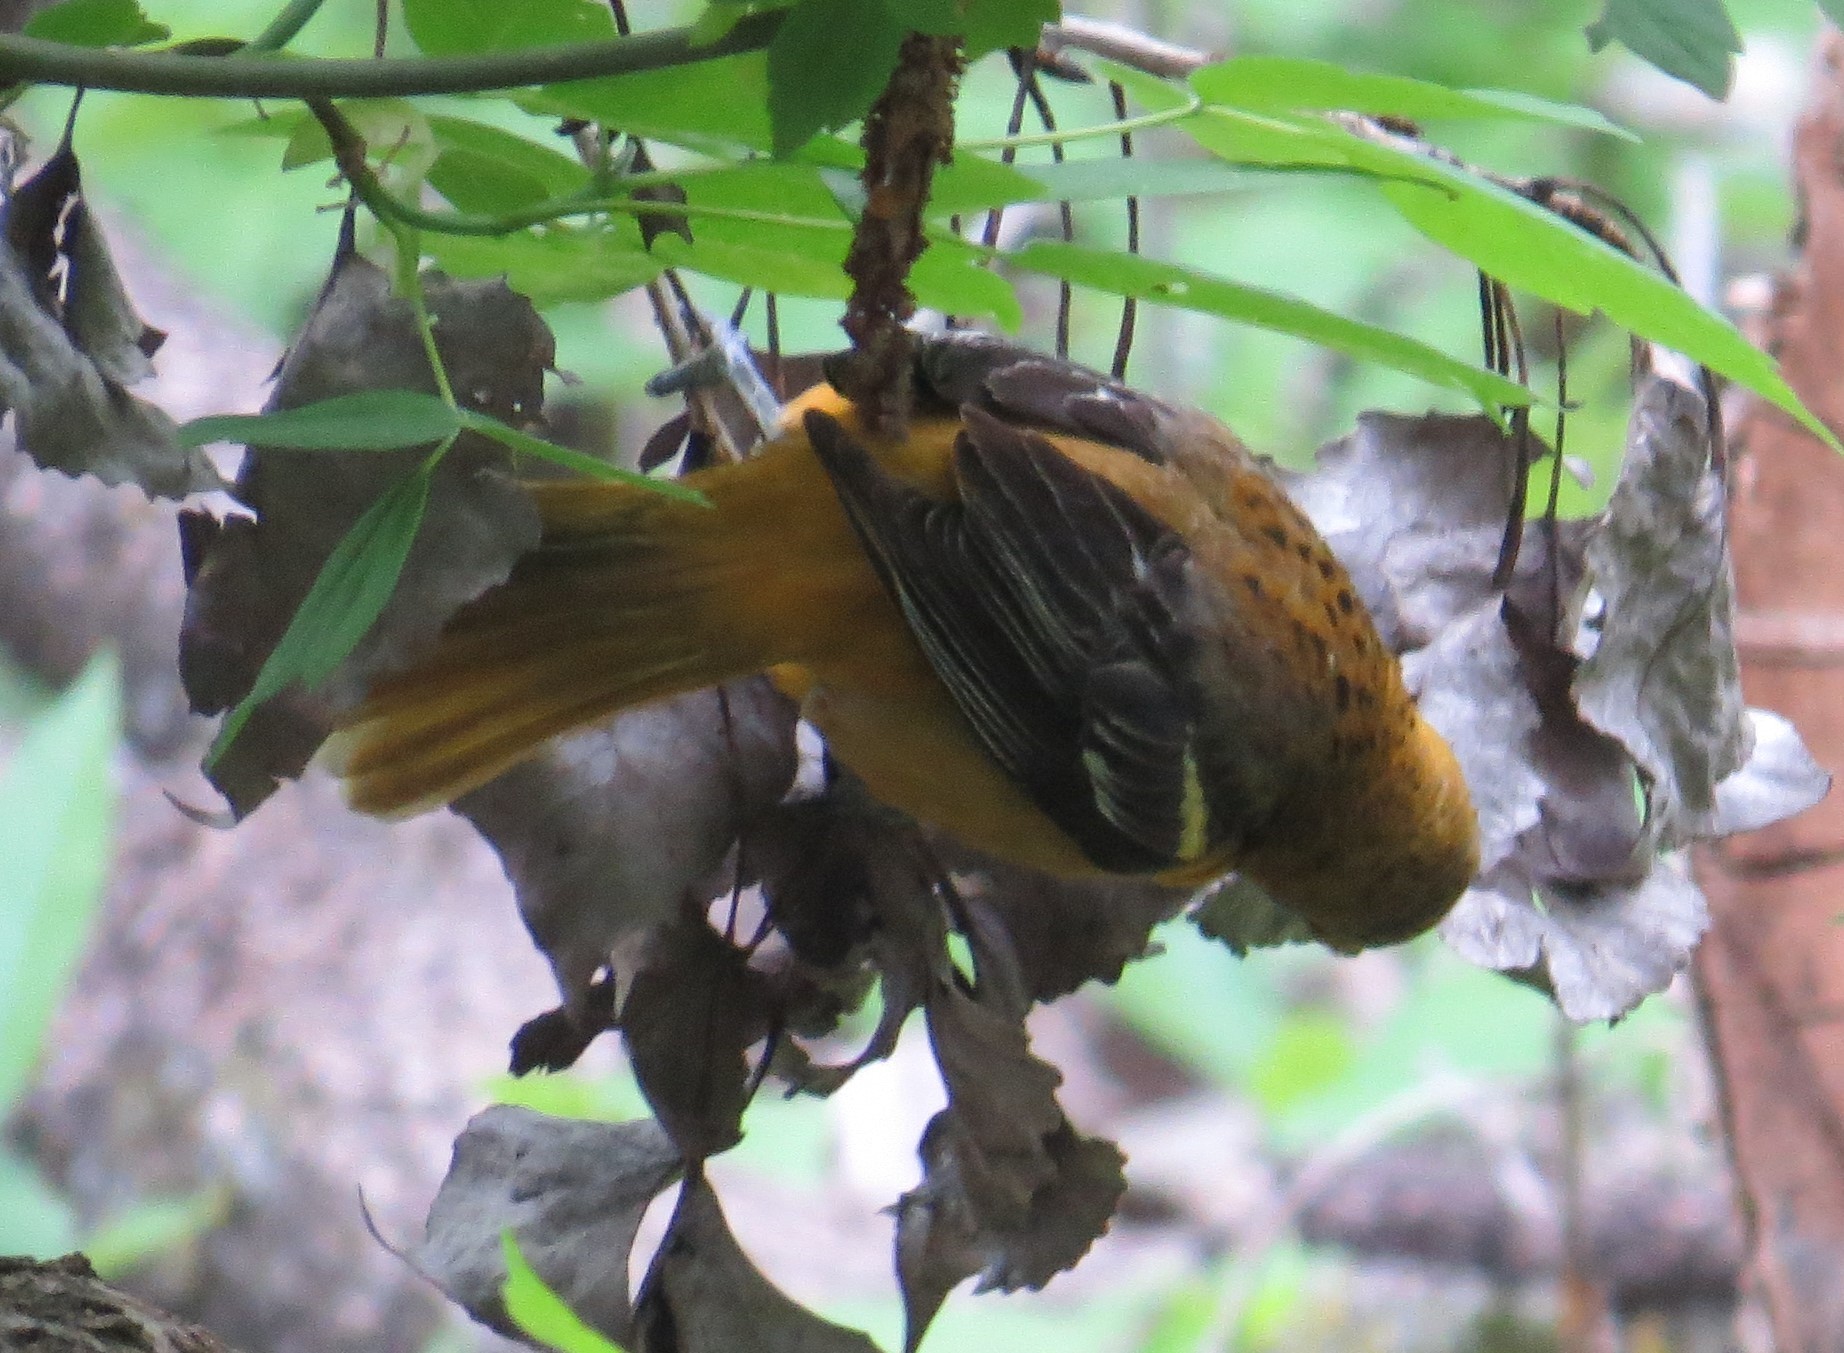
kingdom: Animalia
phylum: Chordata
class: Aves
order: Passeriformes
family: Icteridae
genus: Icterus
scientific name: Icterus galbula
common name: Baltimore oriole
